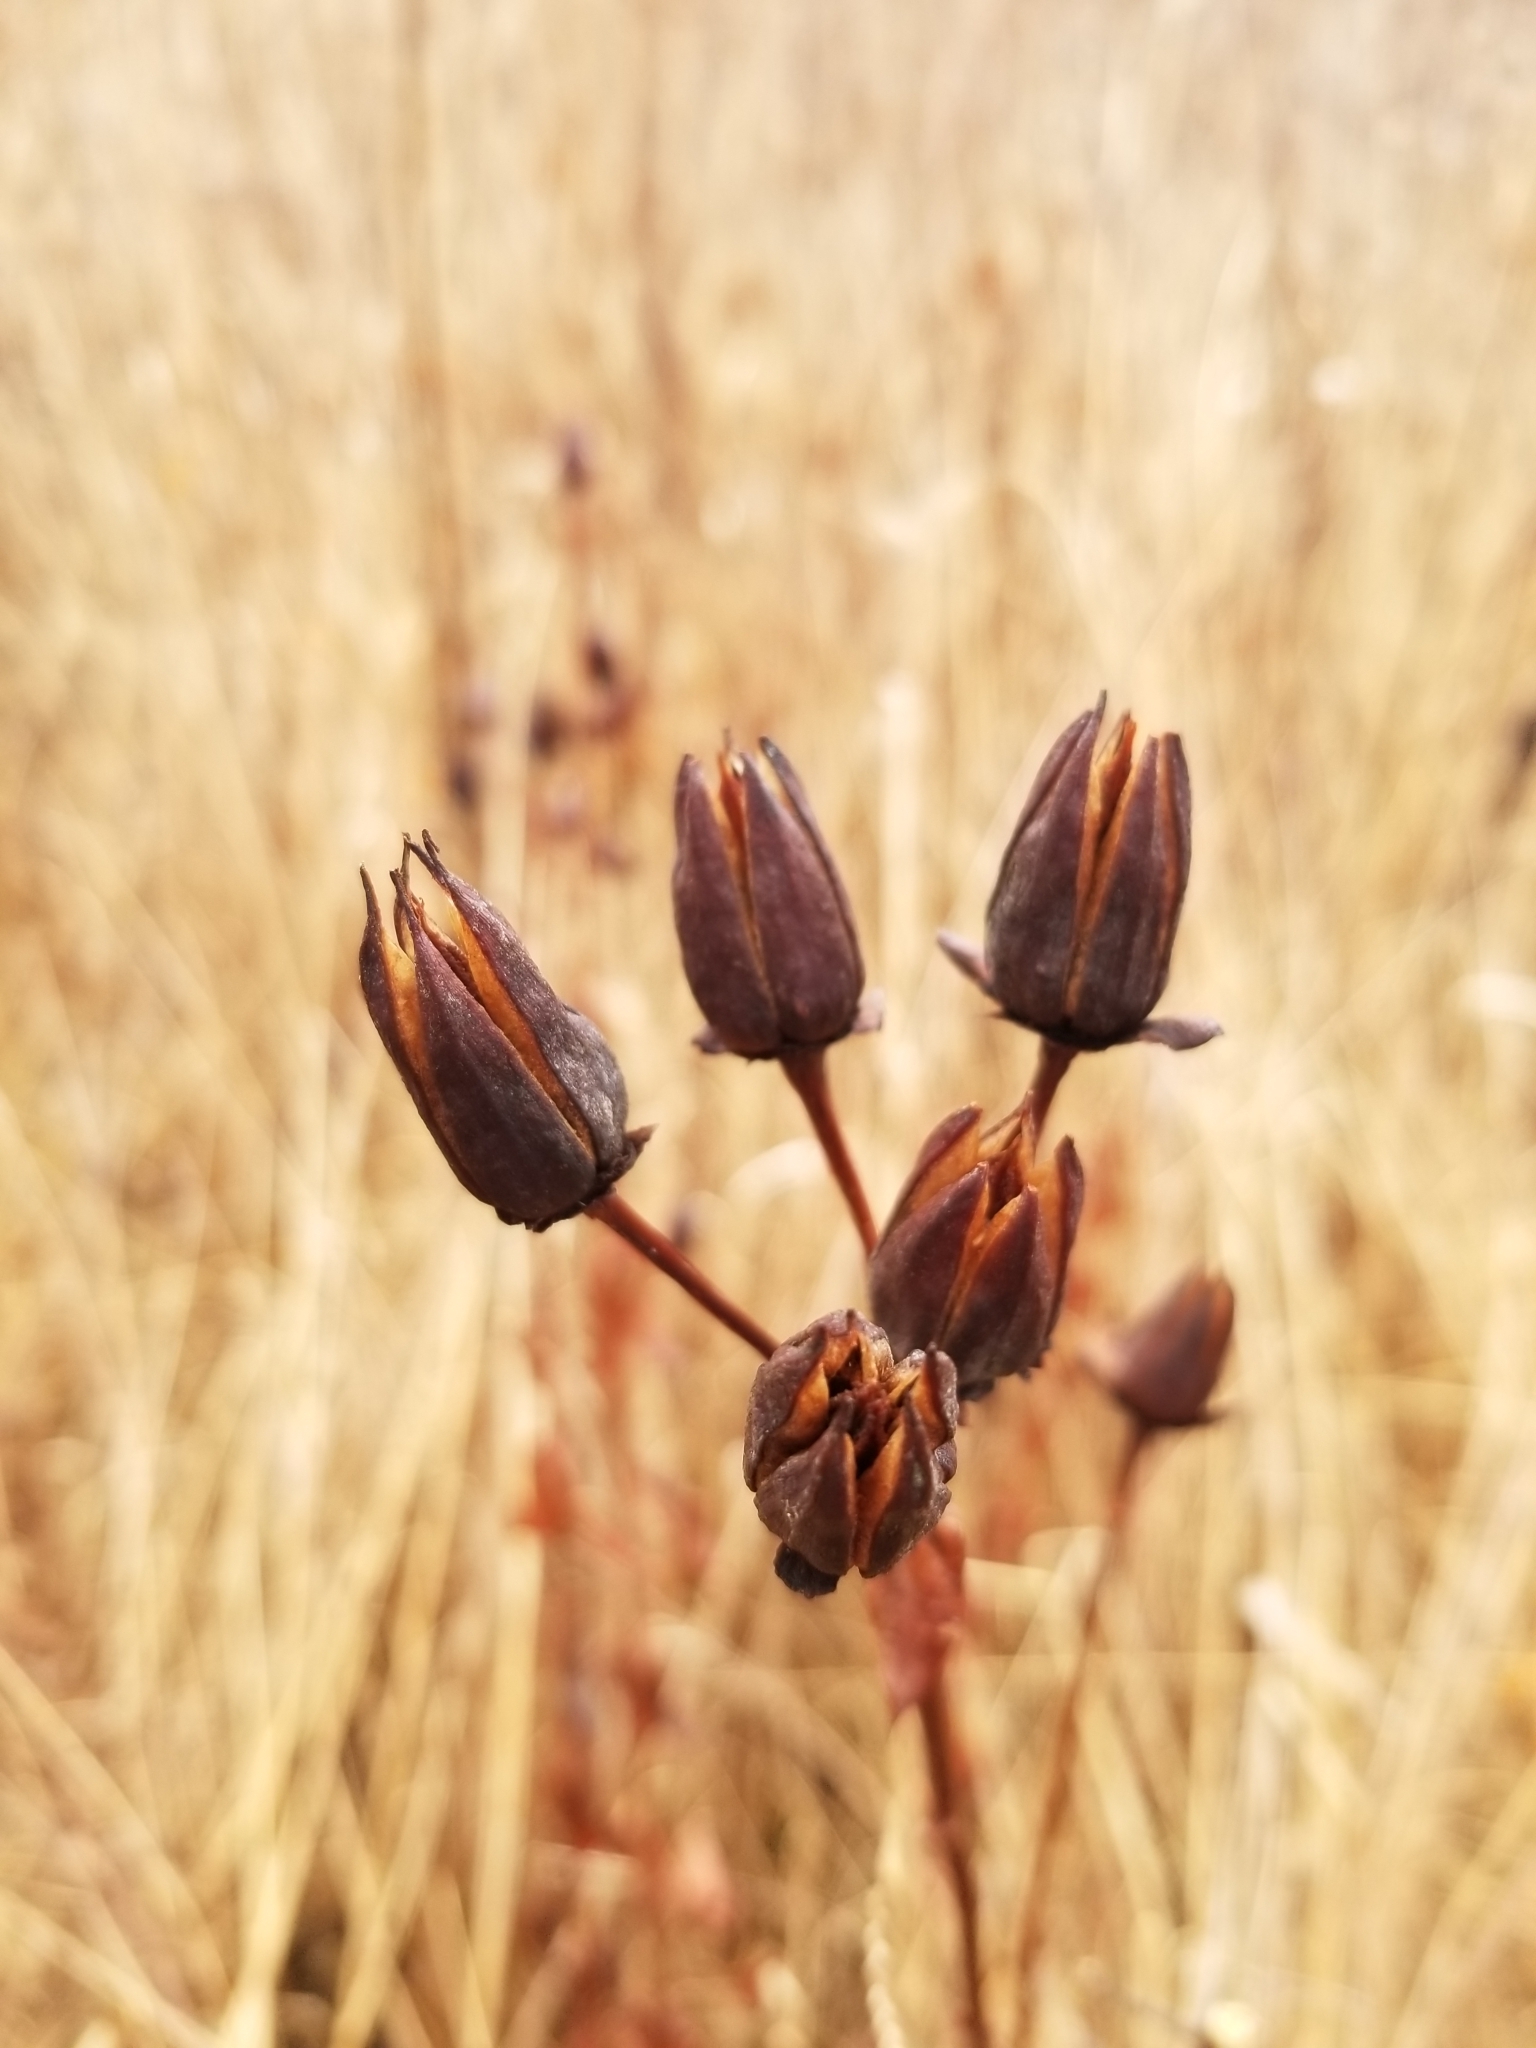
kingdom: Plantae
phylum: Tracheophyta
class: Magnoliopsida
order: Malpighiales
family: Hypericaceae
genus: Hypericum
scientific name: Hypericum ascyron
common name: Giant st. john's-wort
